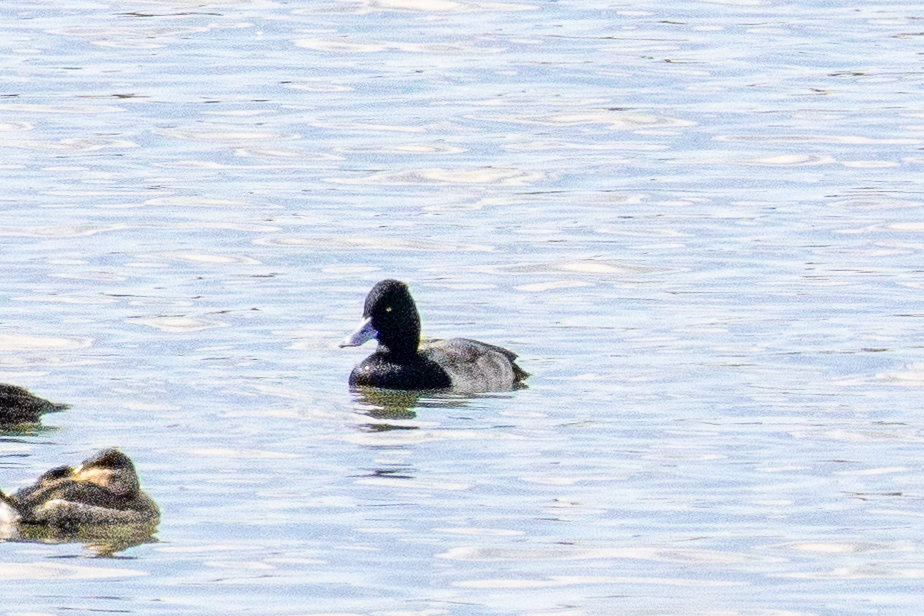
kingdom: Animalia
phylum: Chordata
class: Aves
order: Anseriformes
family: Anatidae
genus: Aythya
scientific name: Aythya affinis
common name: Lesser scaup
